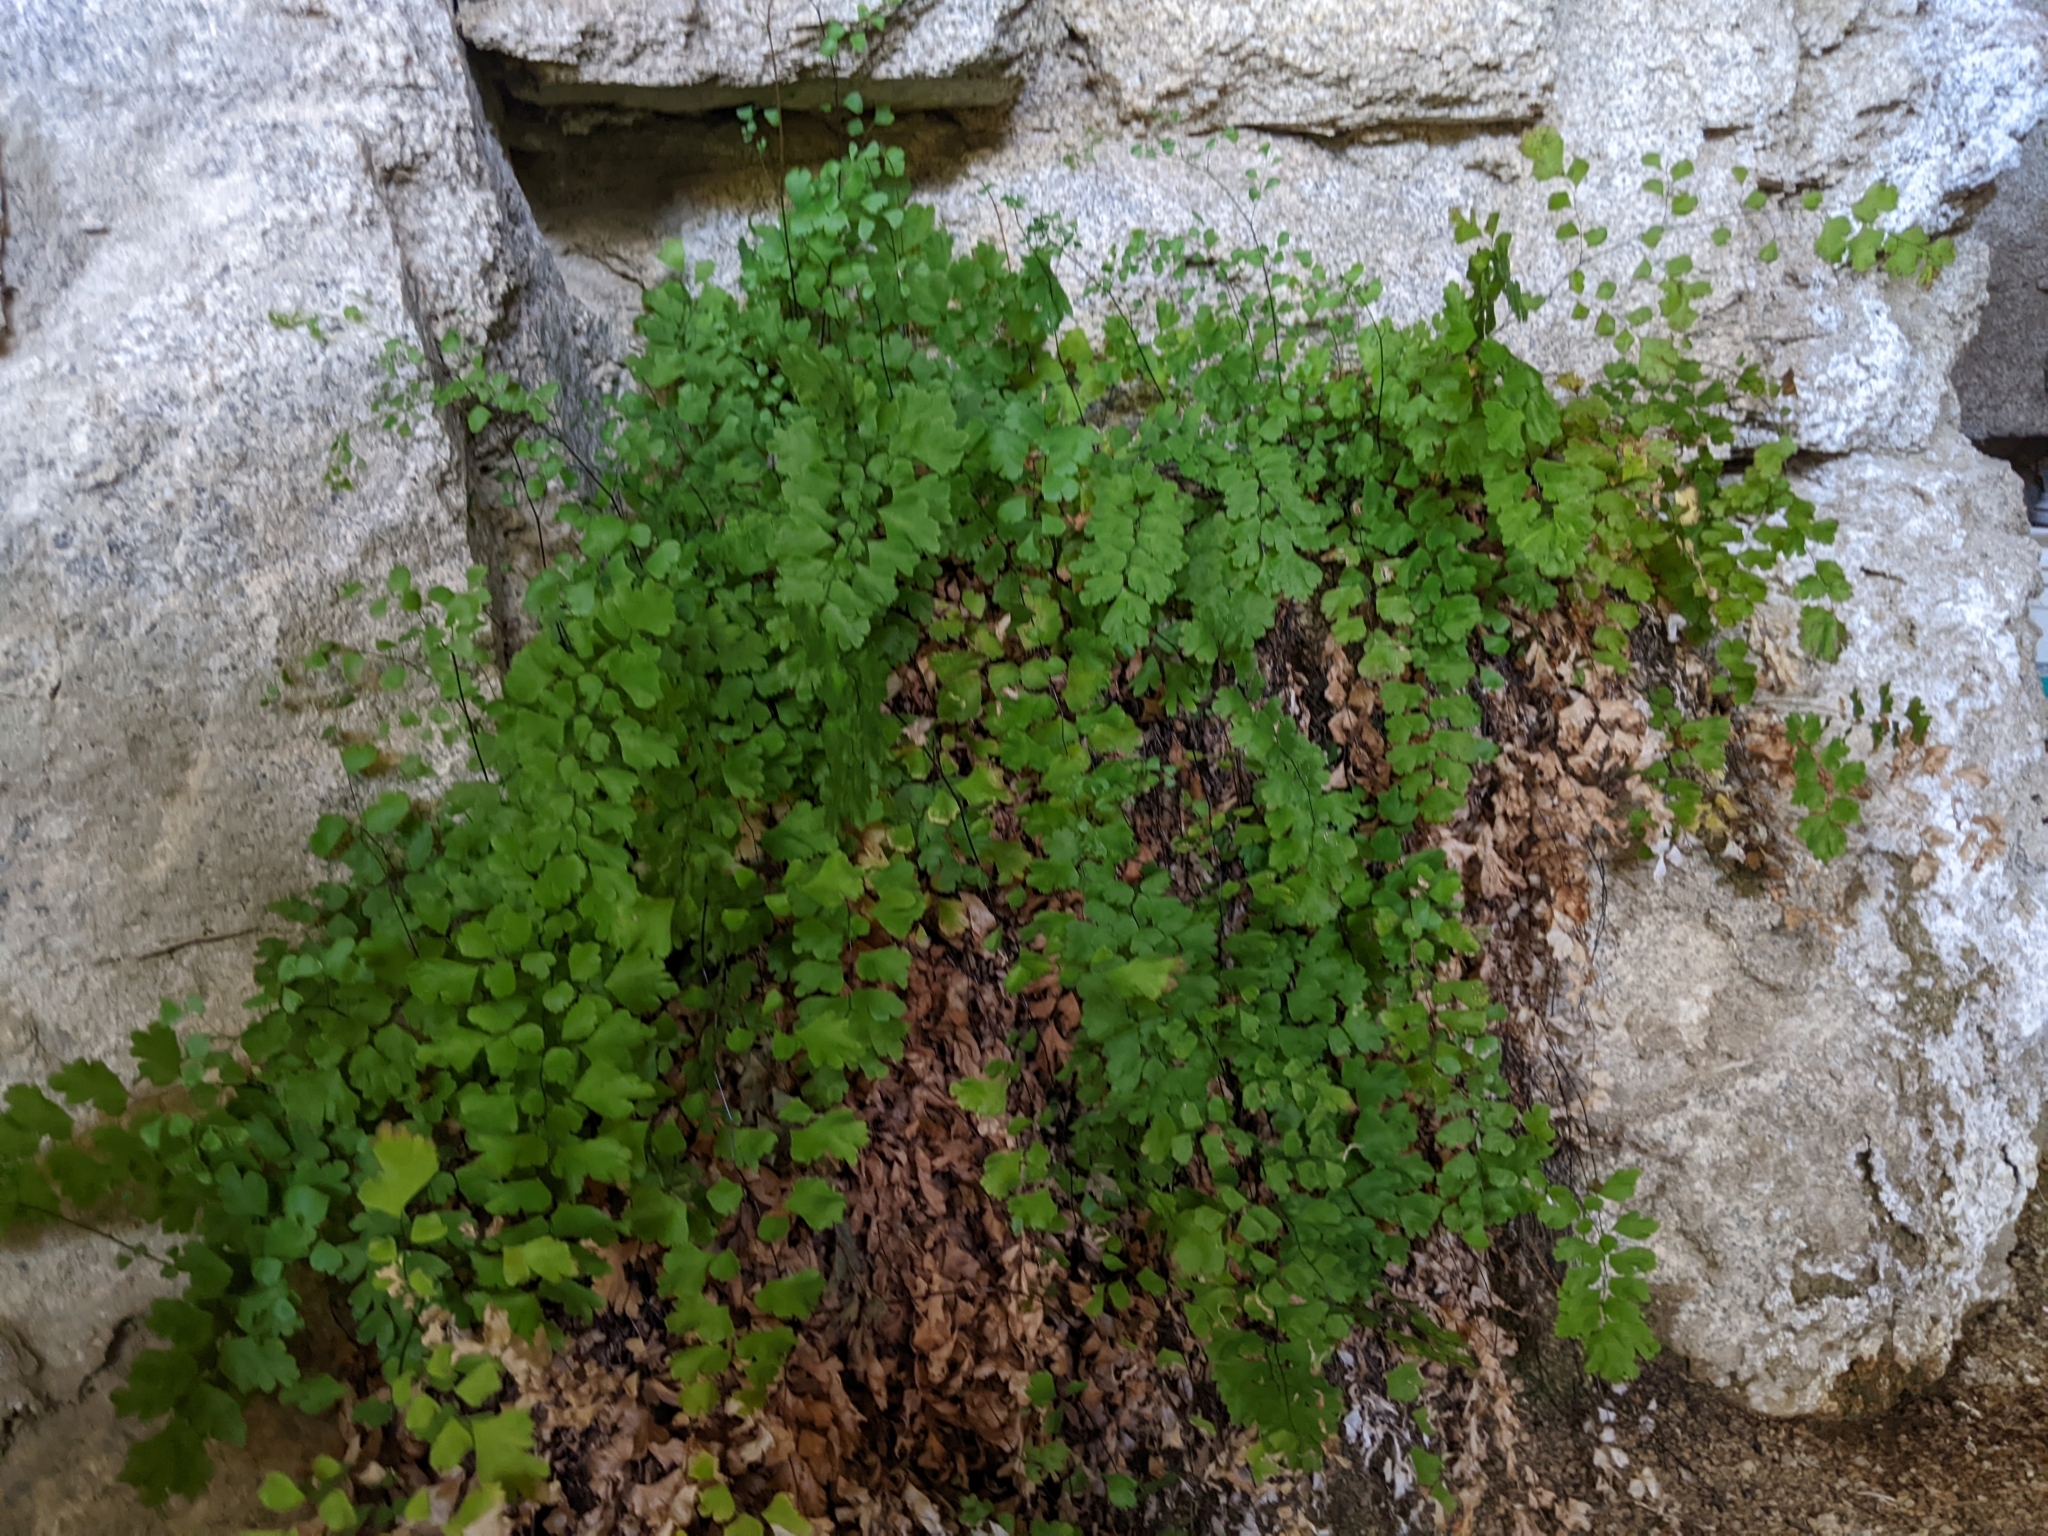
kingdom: Plantae
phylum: Tracheophyta
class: Polypodiopsida
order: Polypodiales
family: Pteridaceae
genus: Adiantum
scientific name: Adiantum capillus-veneris
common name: Maidenhair fern
